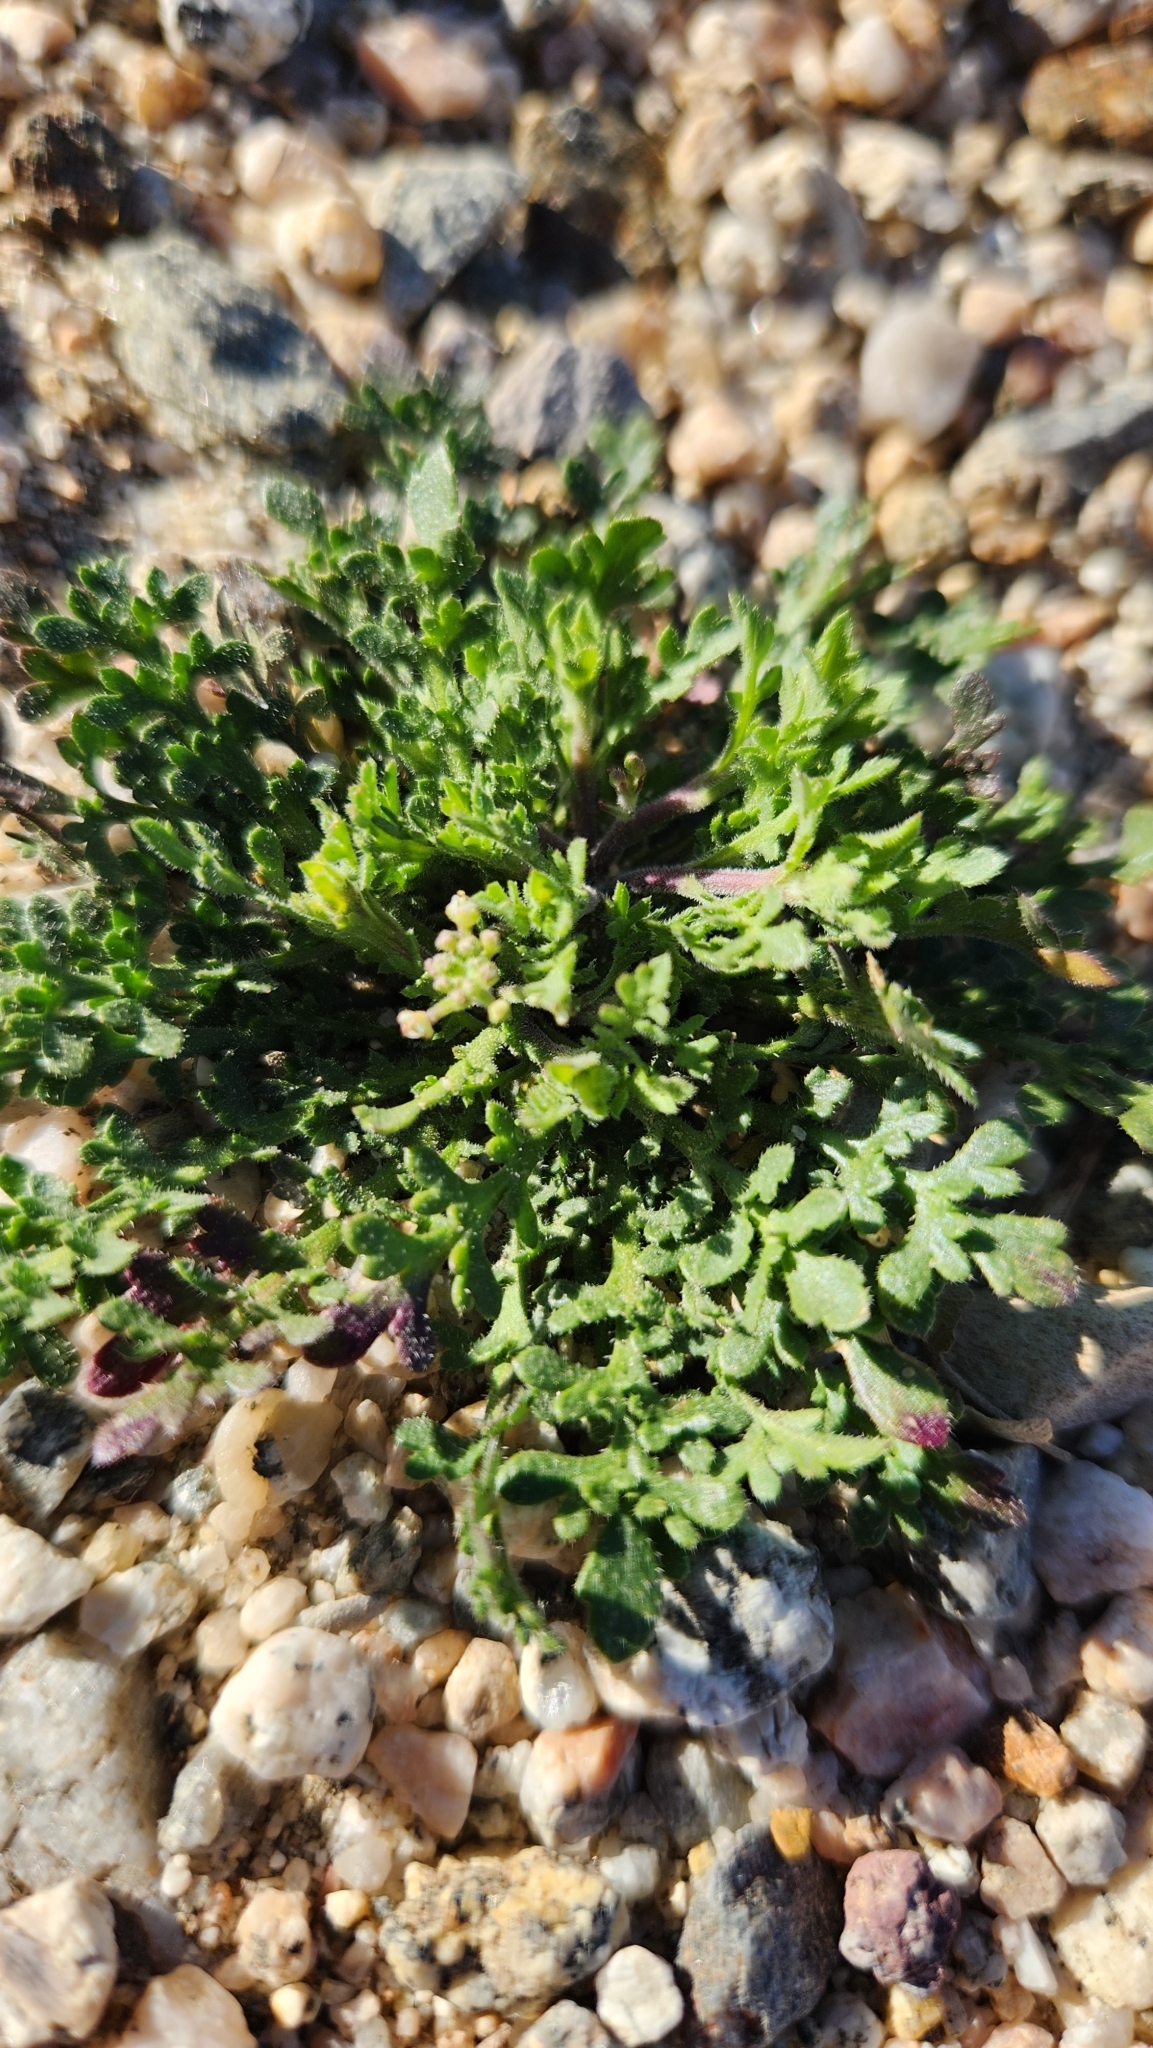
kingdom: Plantae
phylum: Tracheophyta
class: Magnoliopsida
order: Brassicales
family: Brassicaceae
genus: Lepidium
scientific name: Lepidium lasiocarpum
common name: Hairy-pod pepperwort
